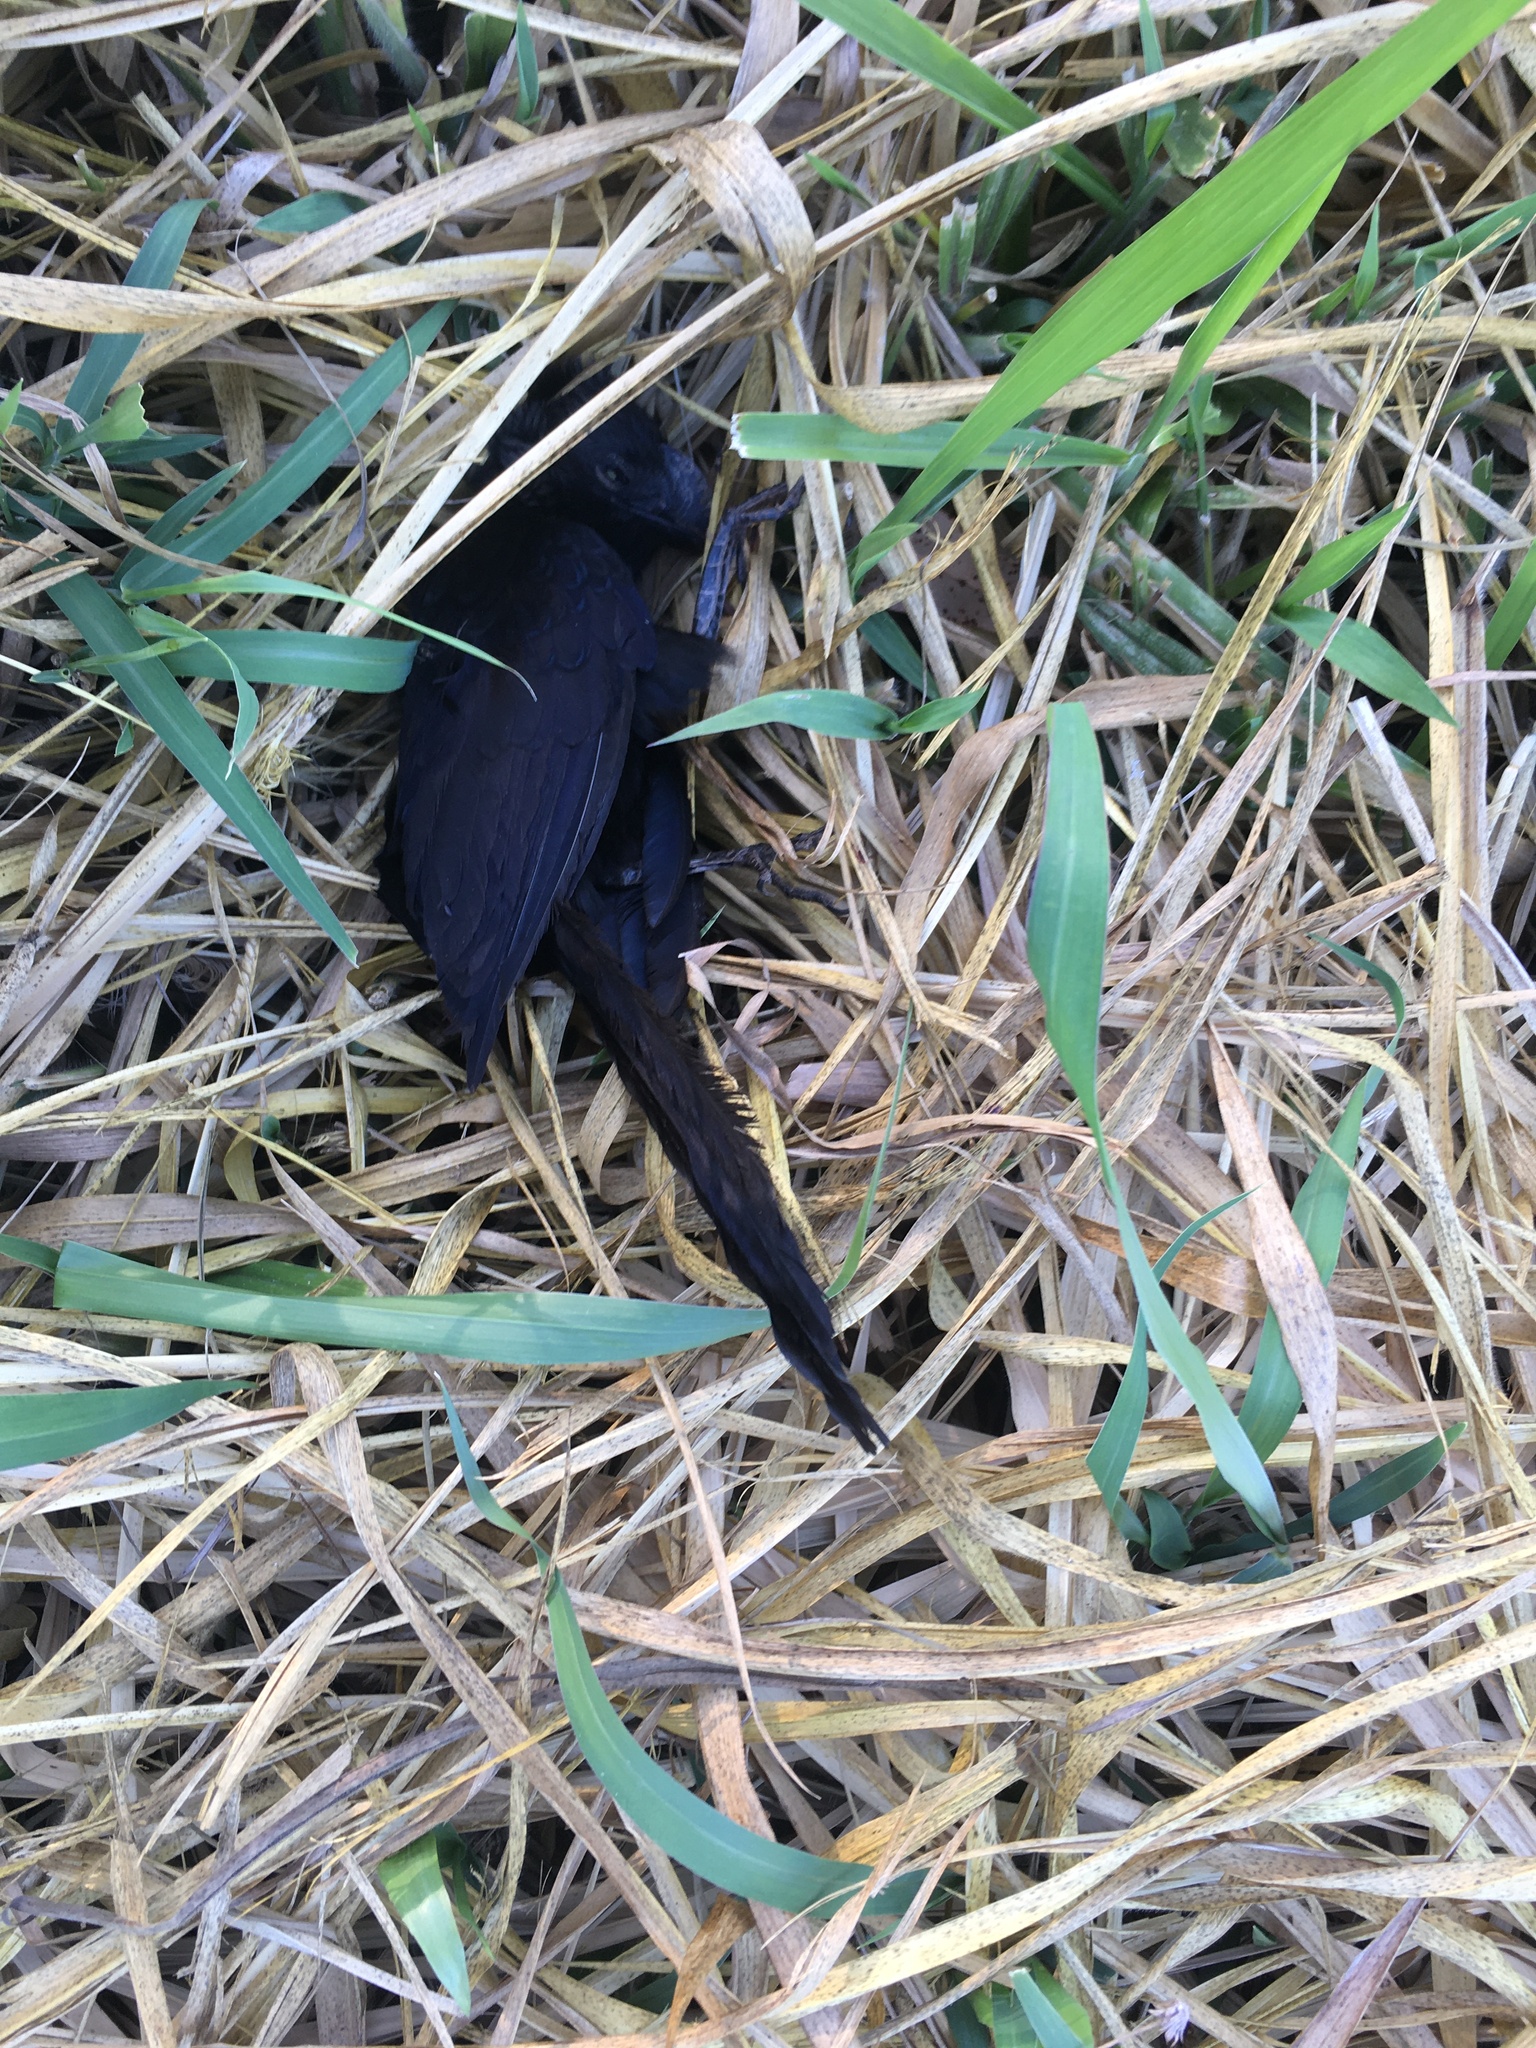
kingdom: Animalia
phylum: Chordata
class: Aves
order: Cuculiformes
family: Cuculidae
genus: Crotophaga
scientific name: Crotophaga ani
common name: Smooth-billed ani
